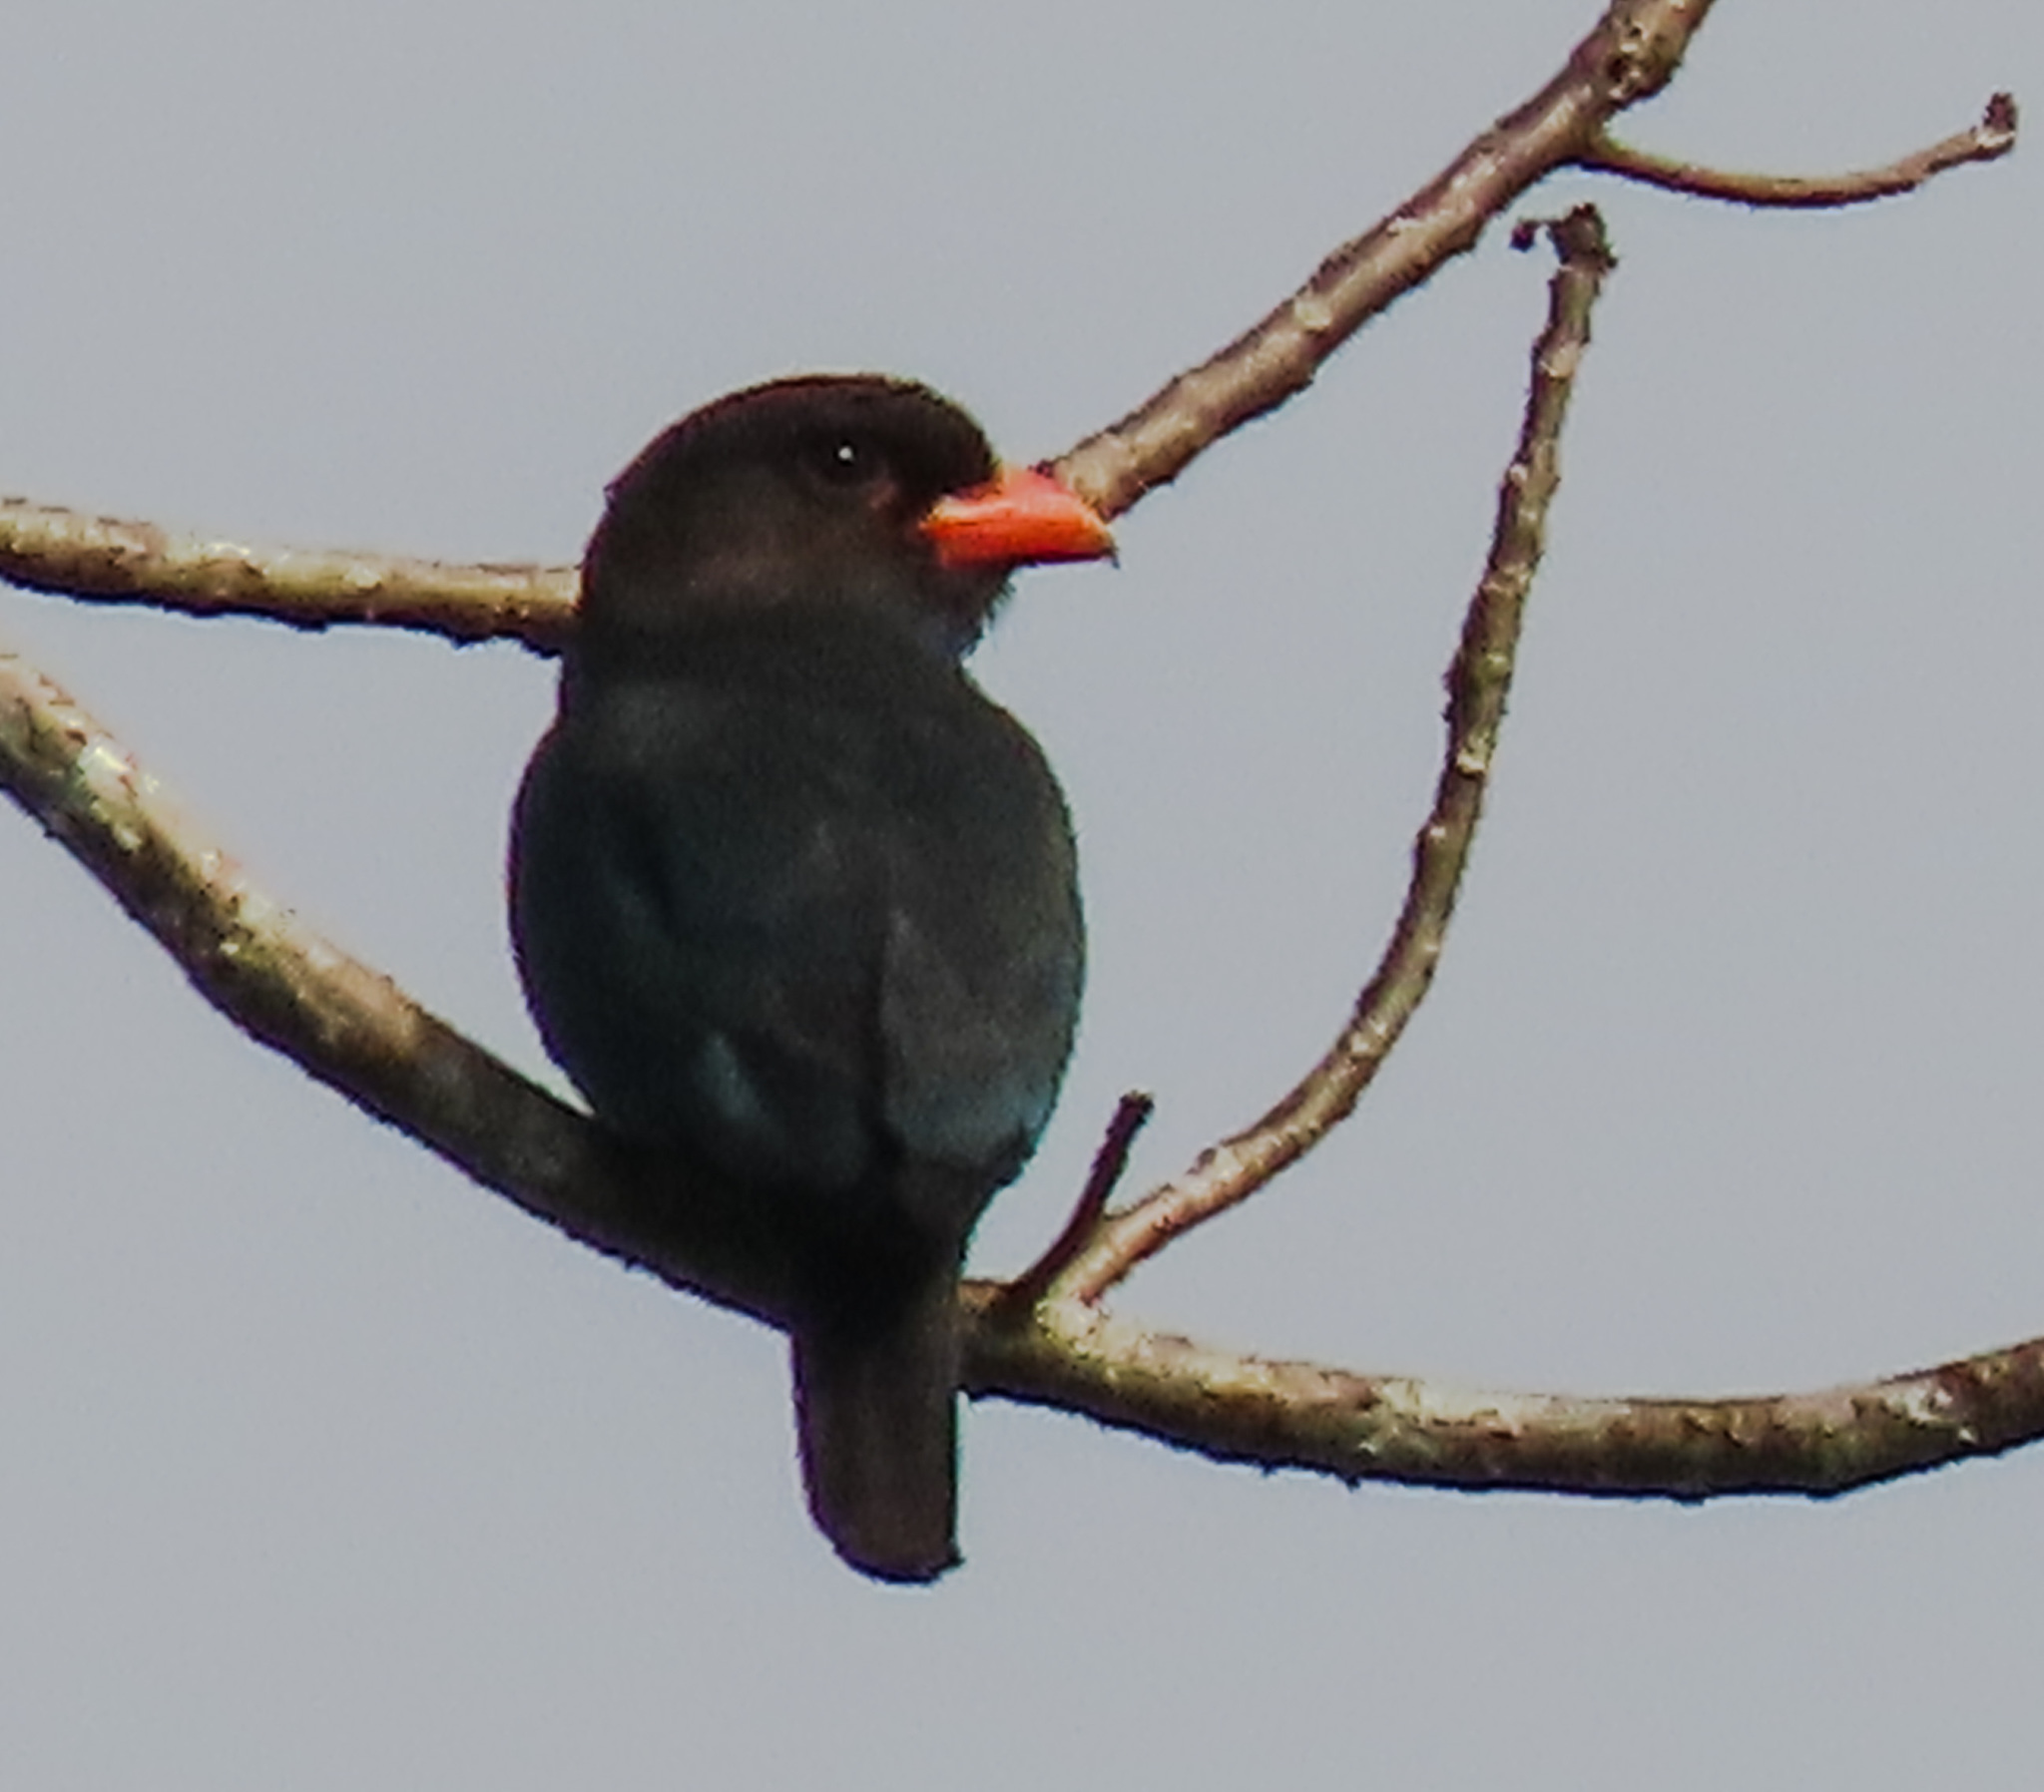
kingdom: Animalia
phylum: Chordata
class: Aves
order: Coraciiformes
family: Coraciidae
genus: Eurystomus
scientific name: Eurystomus orientalis
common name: Oriental dollarbird
